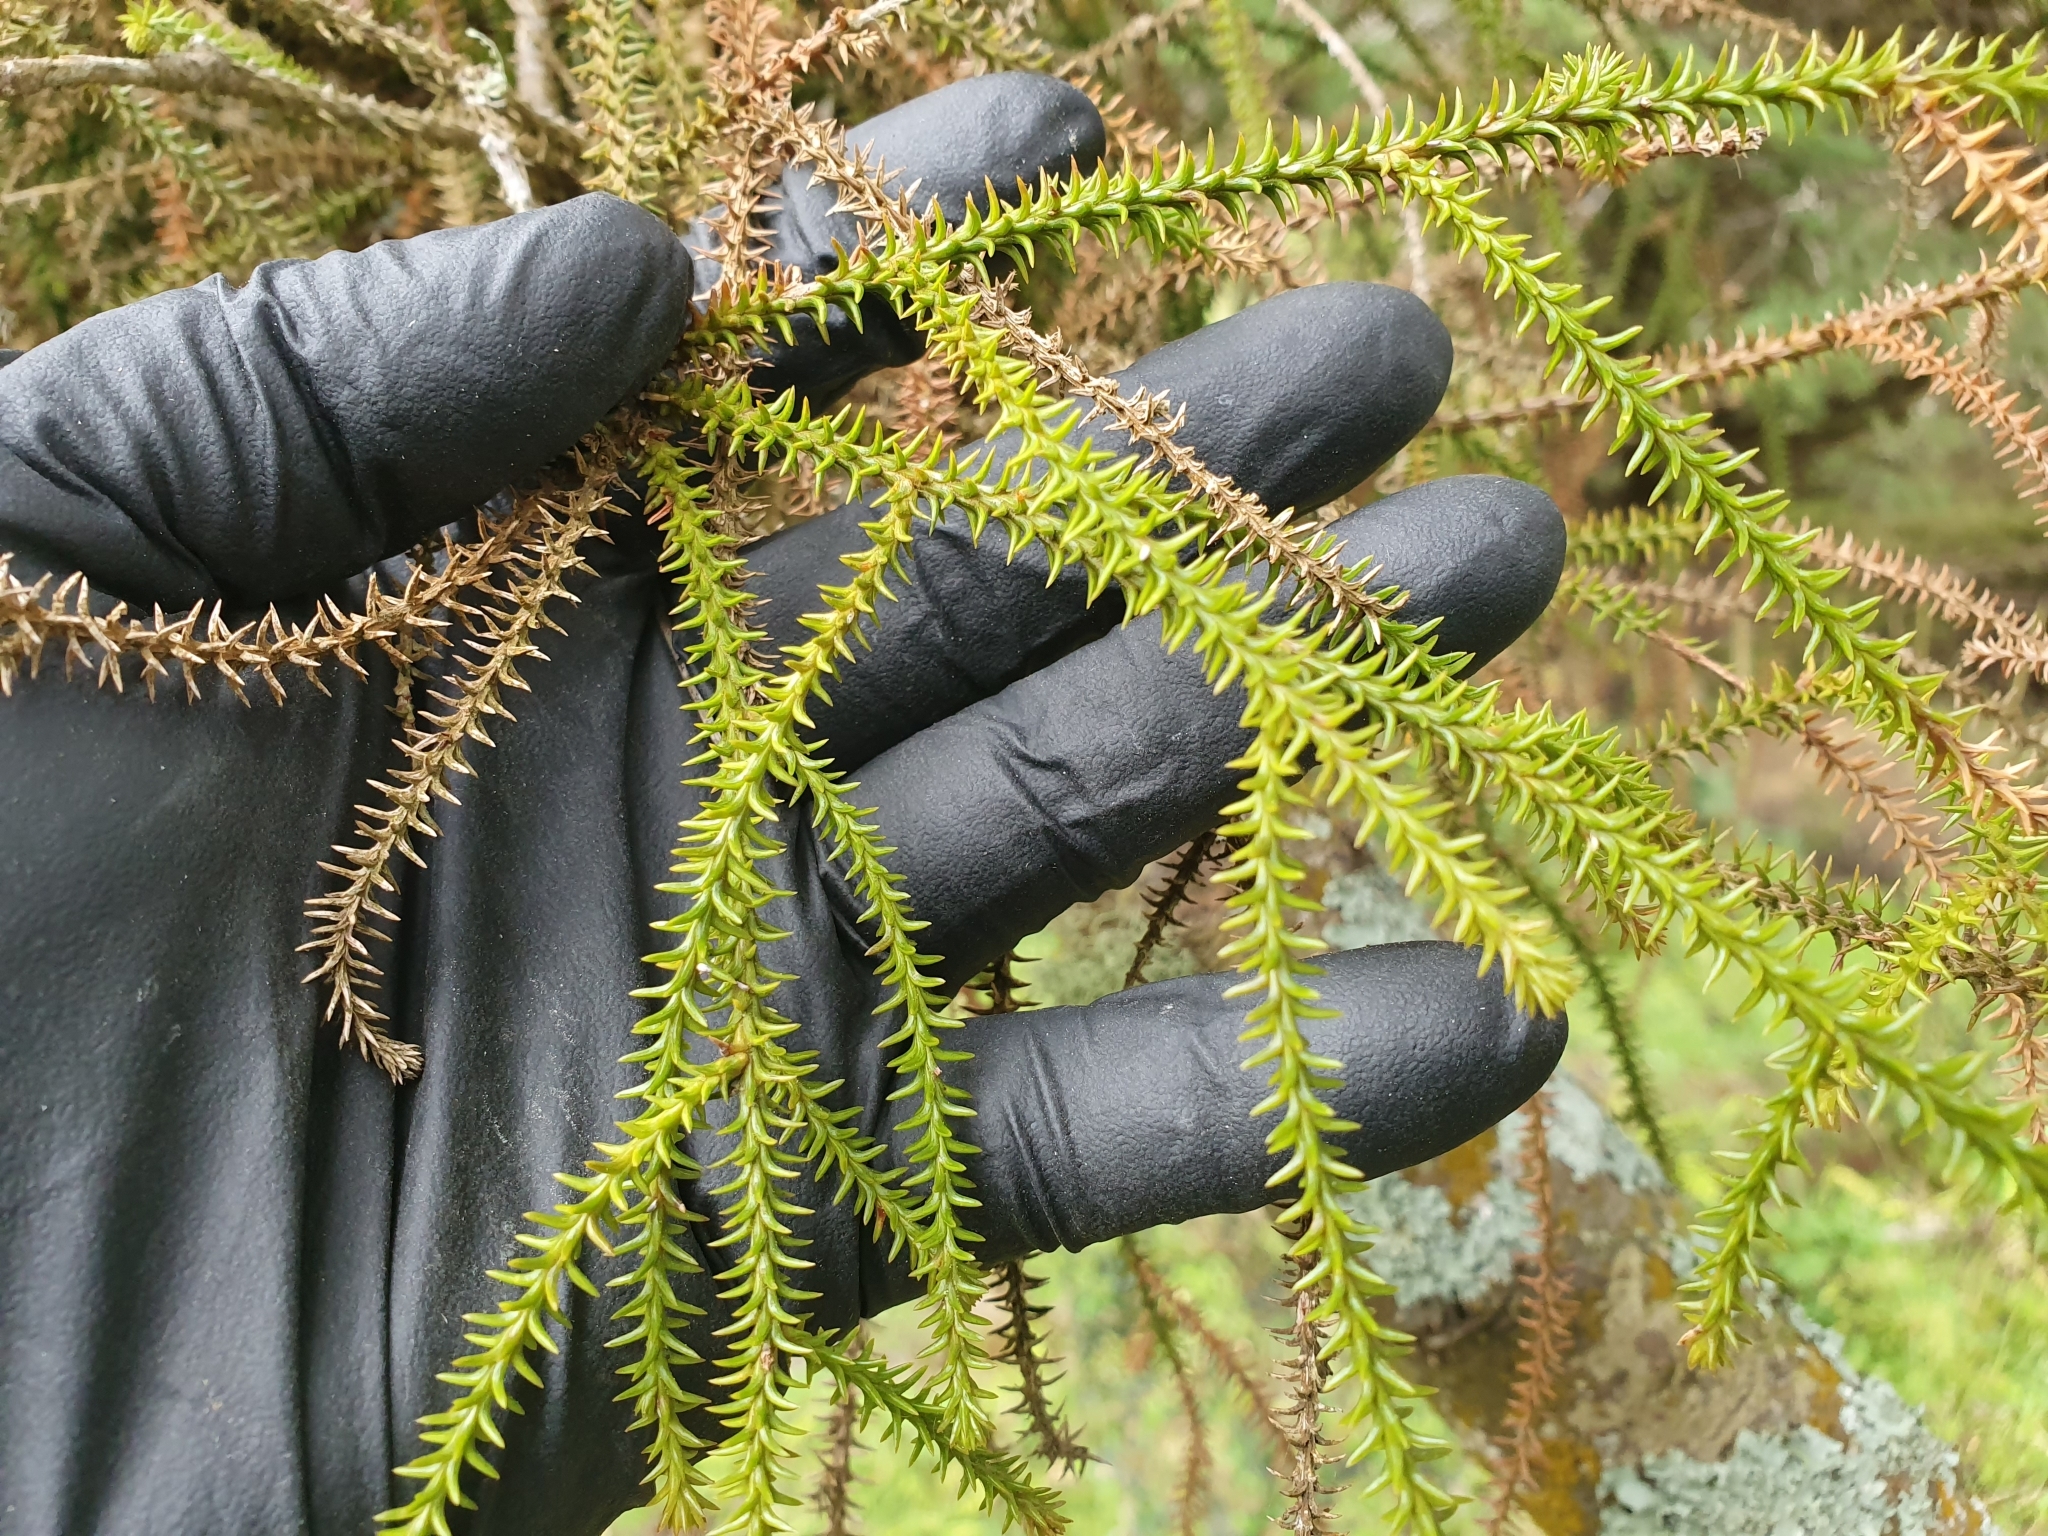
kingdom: Plantae
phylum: Tracheophyta
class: Pinopsida
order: Pinales
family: Podocarpaceae
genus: Dacrydium
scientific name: Dacrydium cupressinum
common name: Red pine
